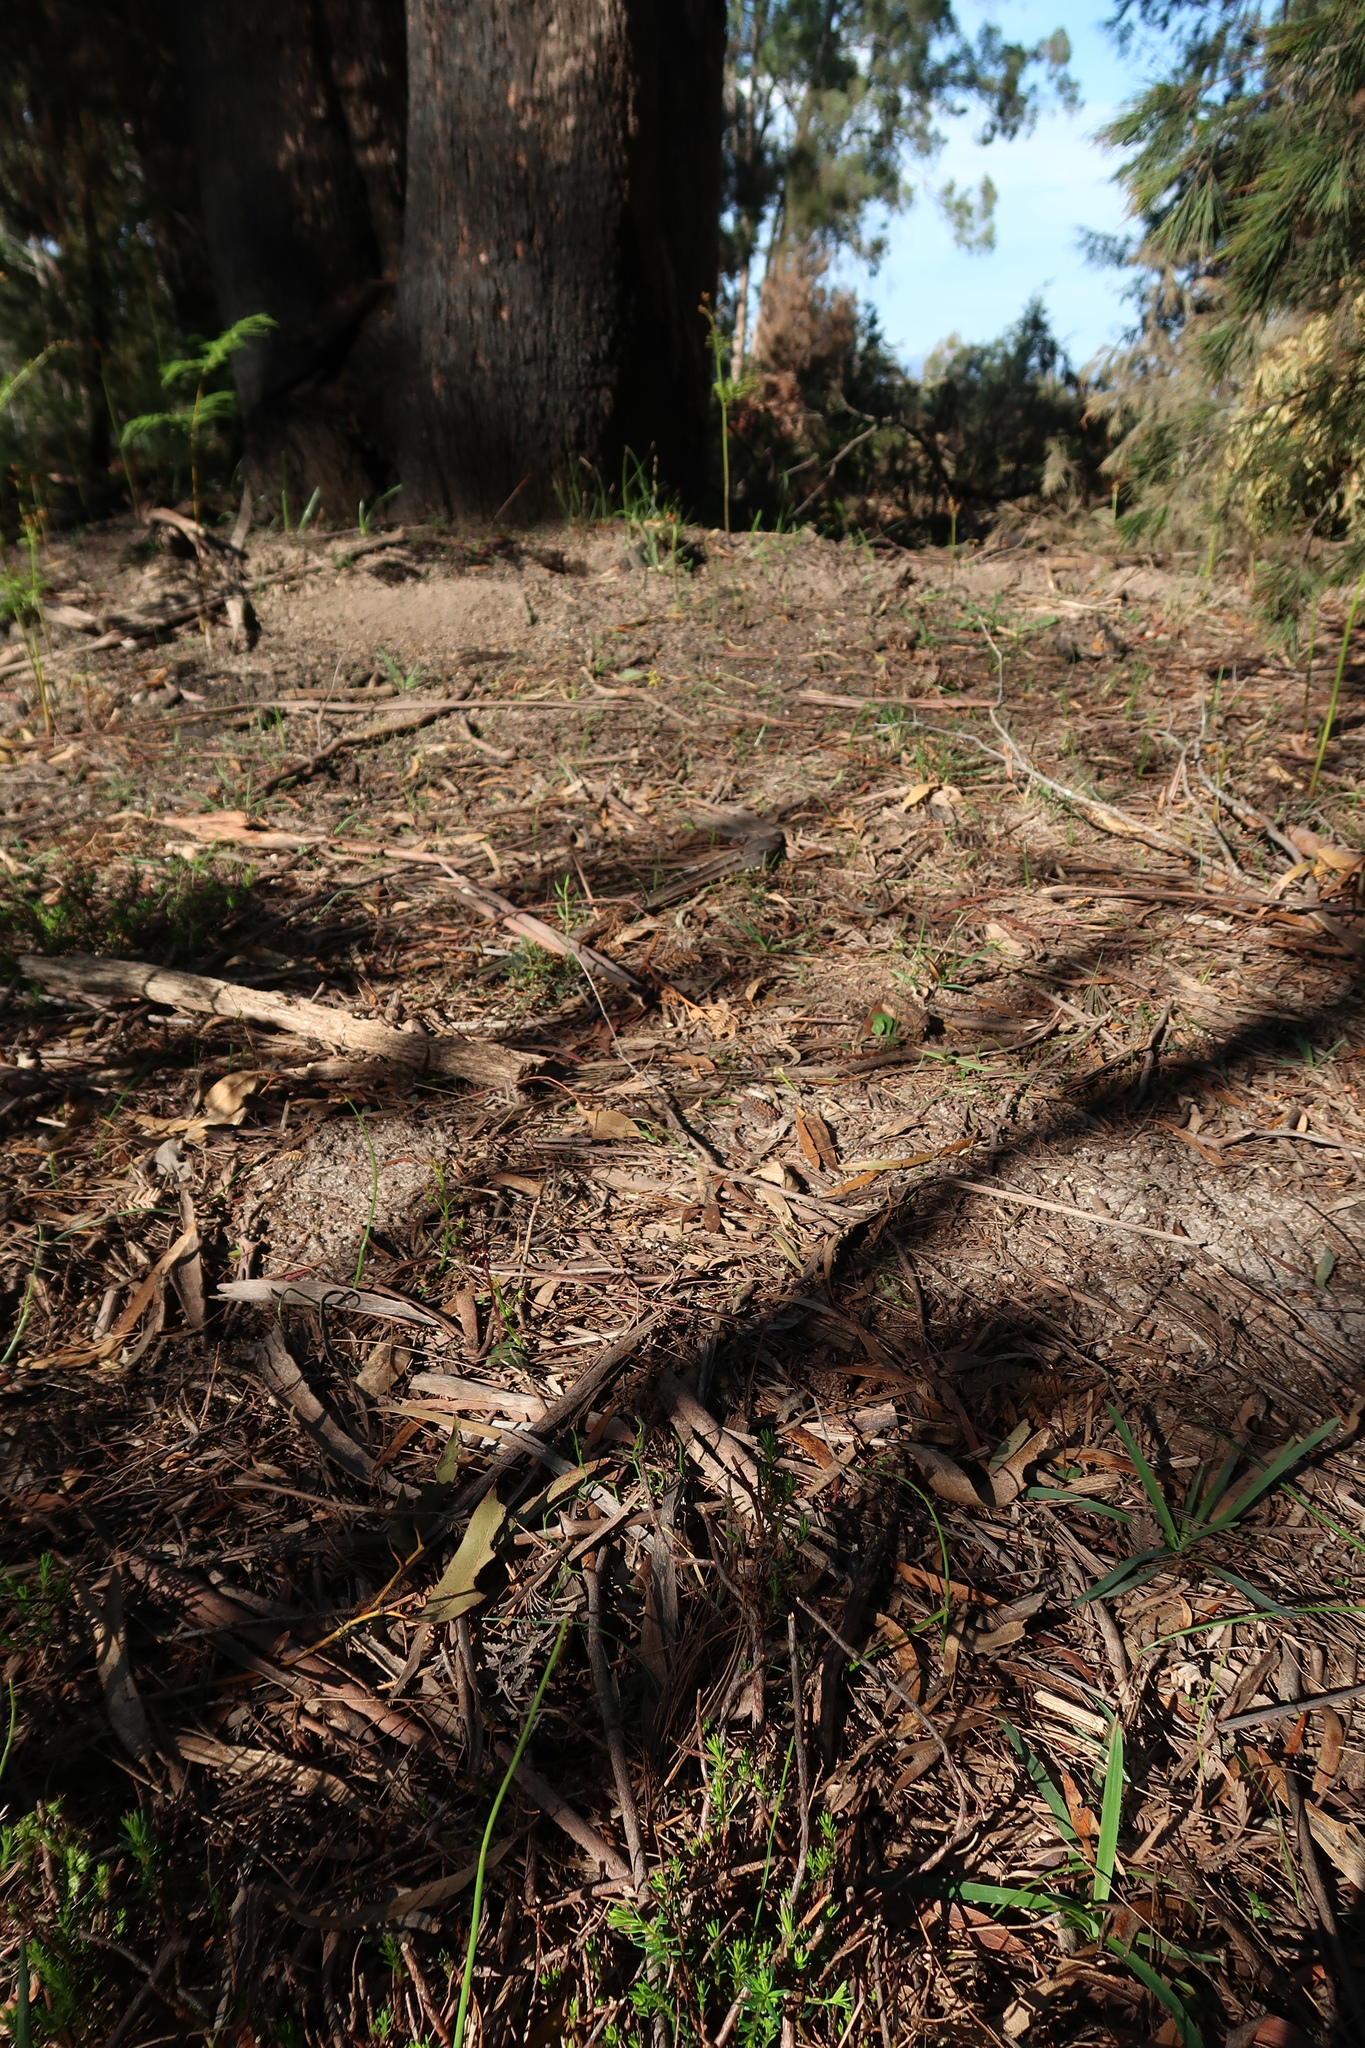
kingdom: Plantae
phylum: Tracheophyta
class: Liliopsida
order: Asparagales
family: Orchidaceae
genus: Acianthus
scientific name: Acianthus caudatus
